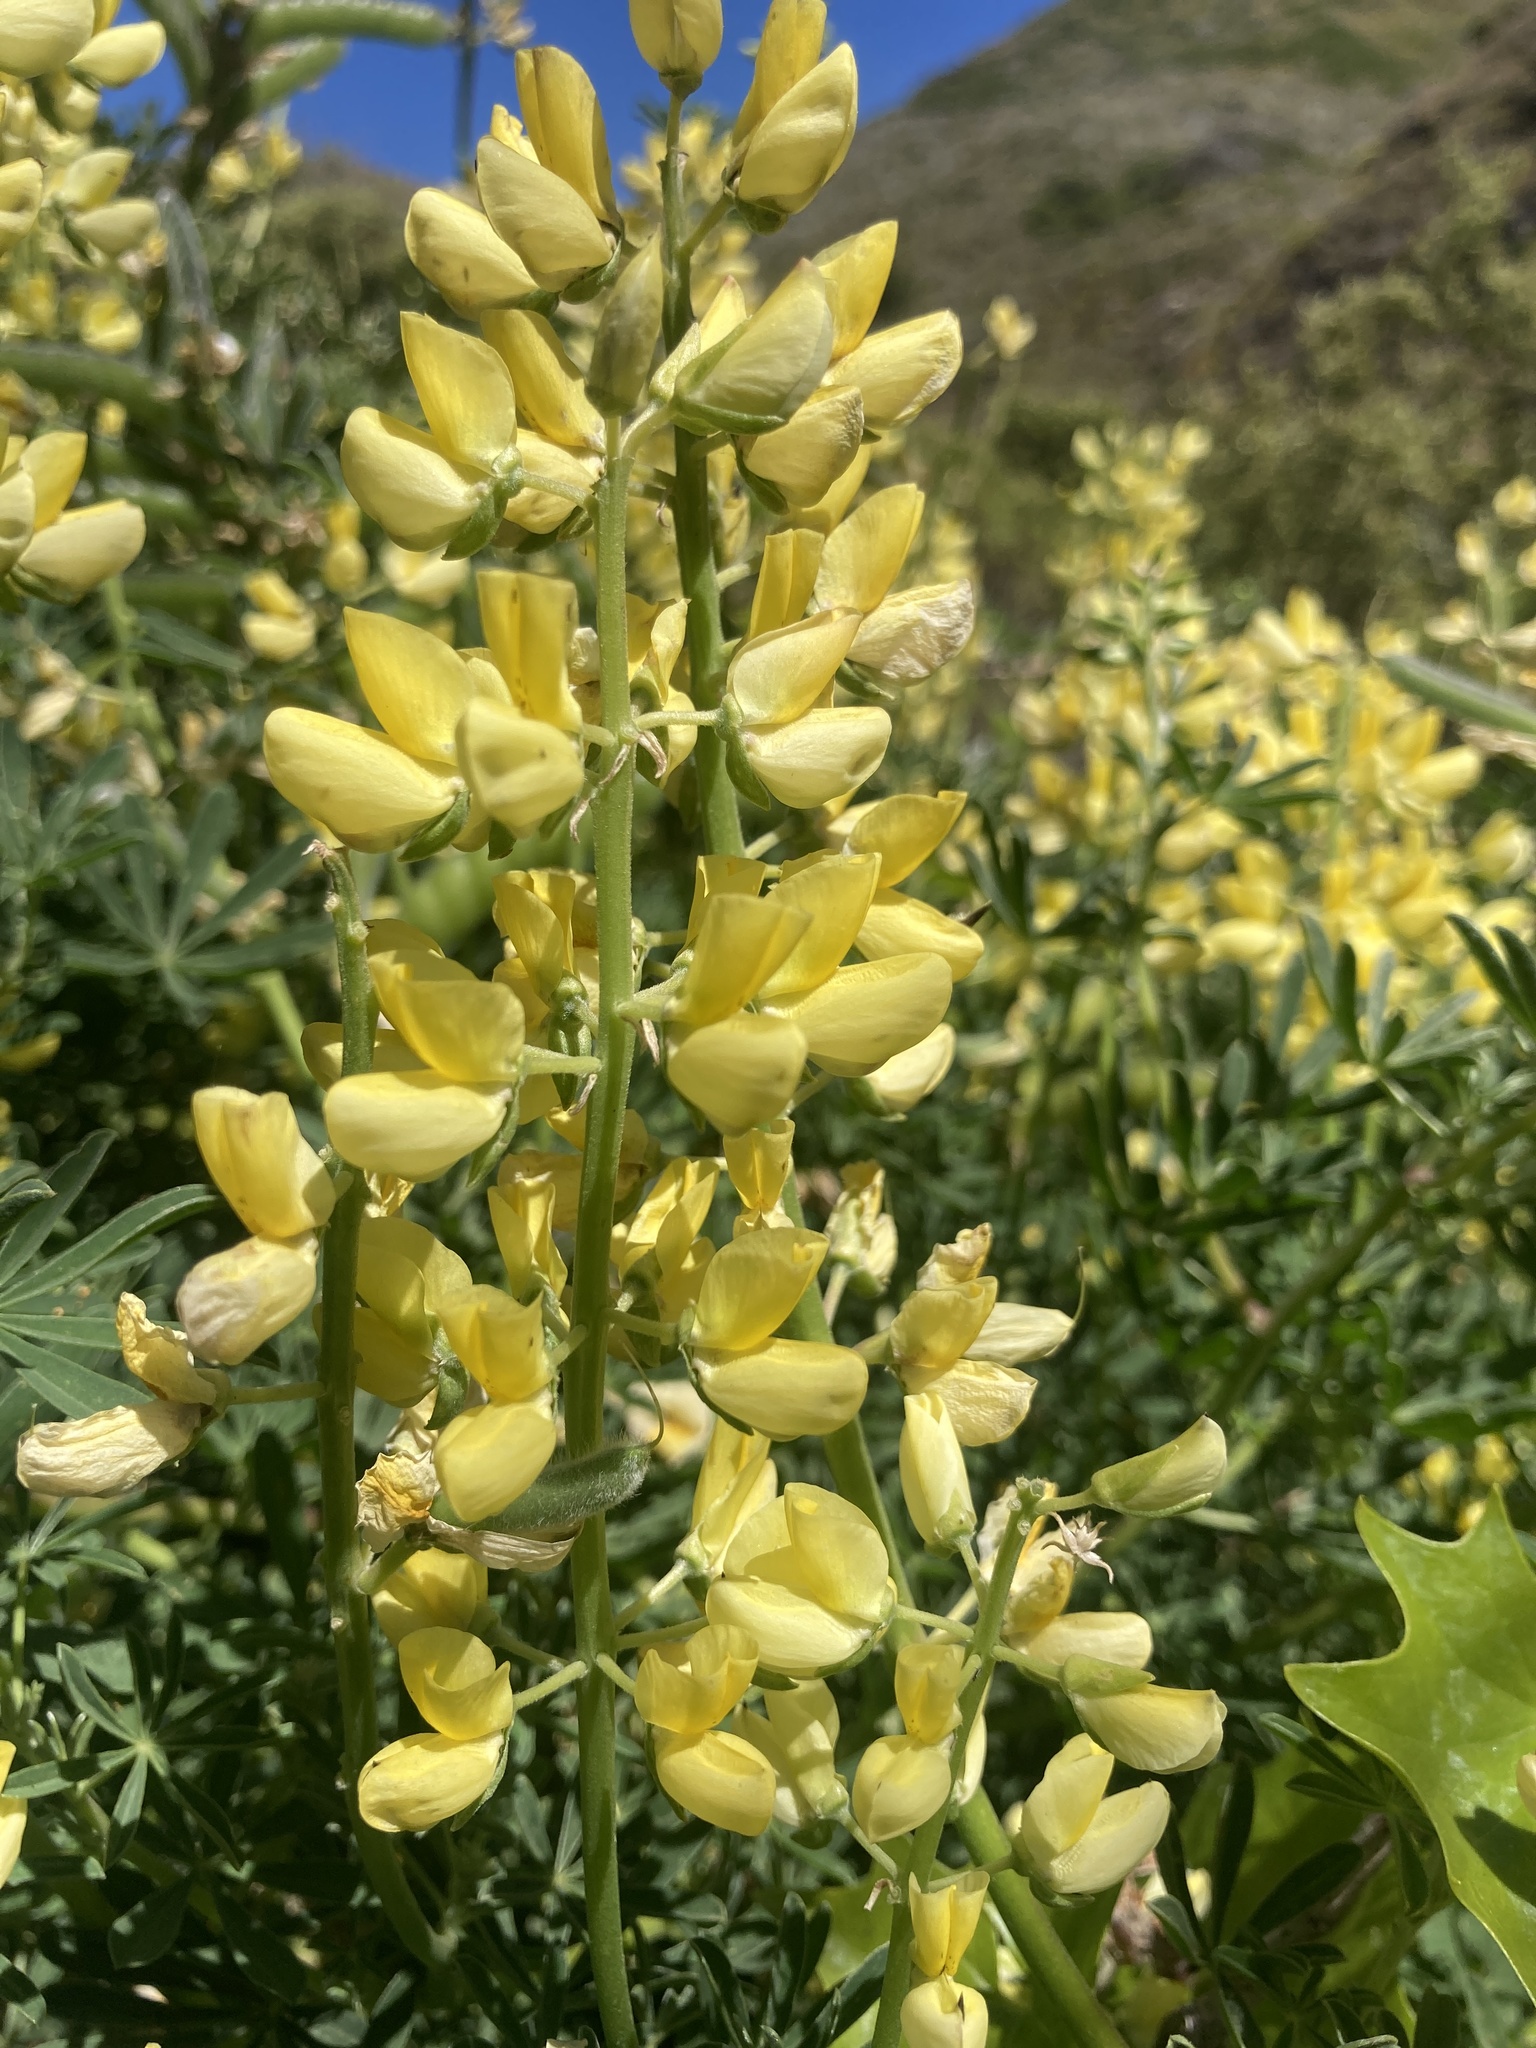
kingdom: Plantae
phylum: Tracheophyta
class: Magnoliopsida
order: Fabales
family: Fabaceae
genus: Lupinus
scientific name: Lupinus arboreus
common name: Yellow bush lupine
